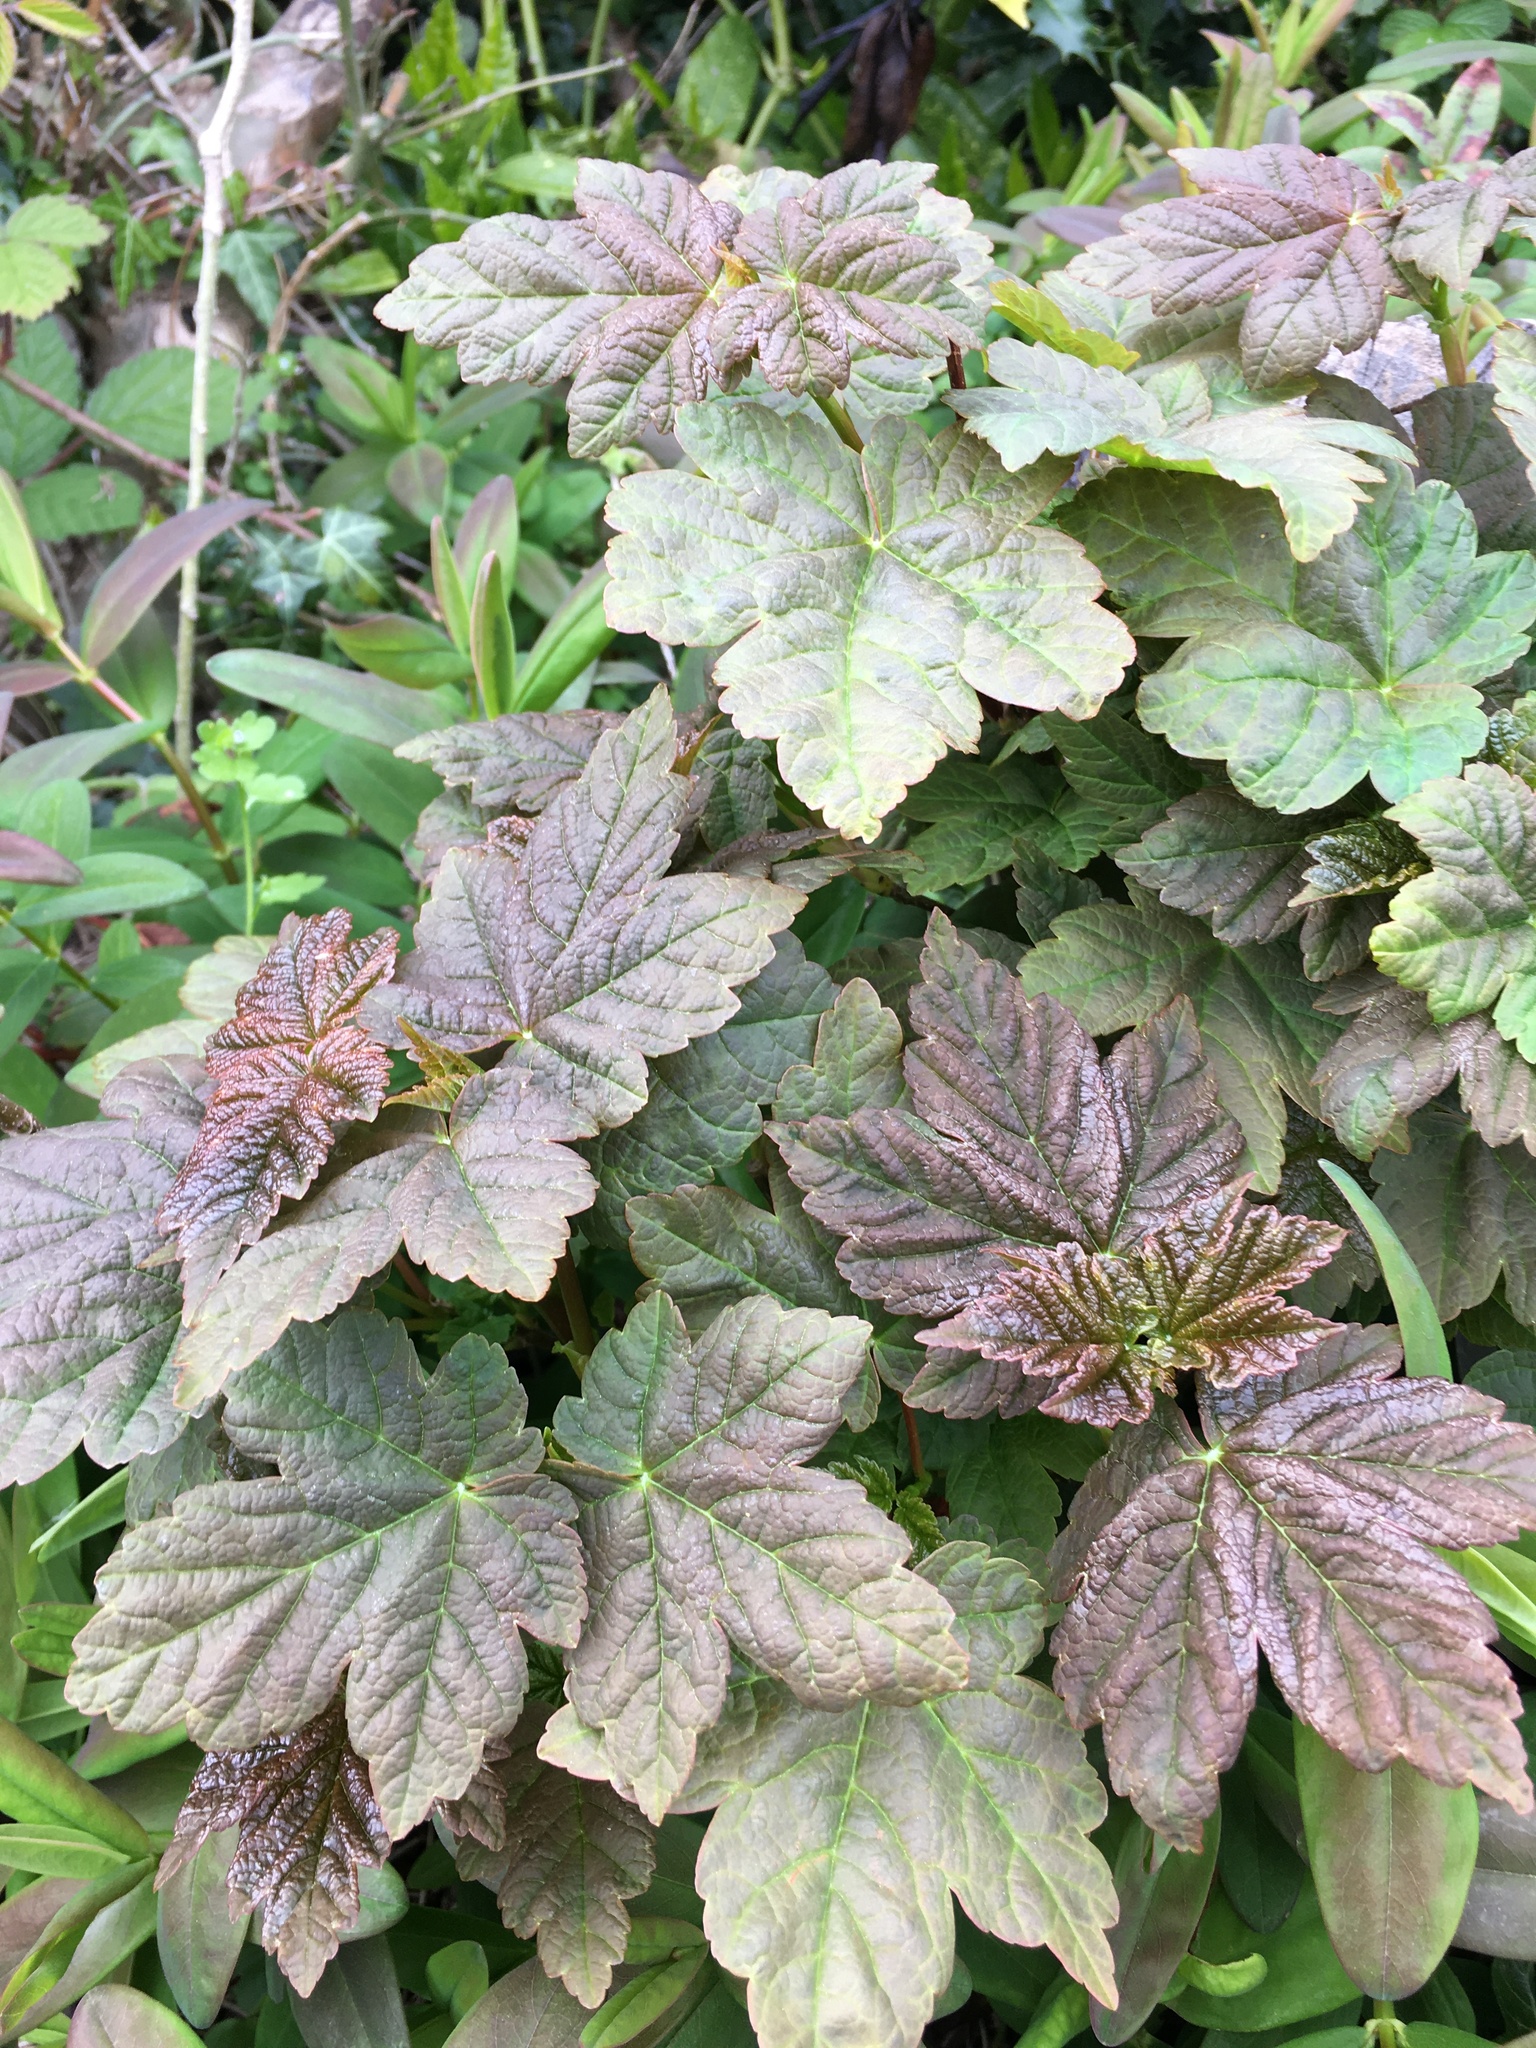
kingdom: Plantae
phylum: Tracheophyta
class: Magnoliopsida
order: Sapindales
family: Sapindaceae
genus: Acer
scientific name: Acer pseudoplatanus
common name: Sycamore
